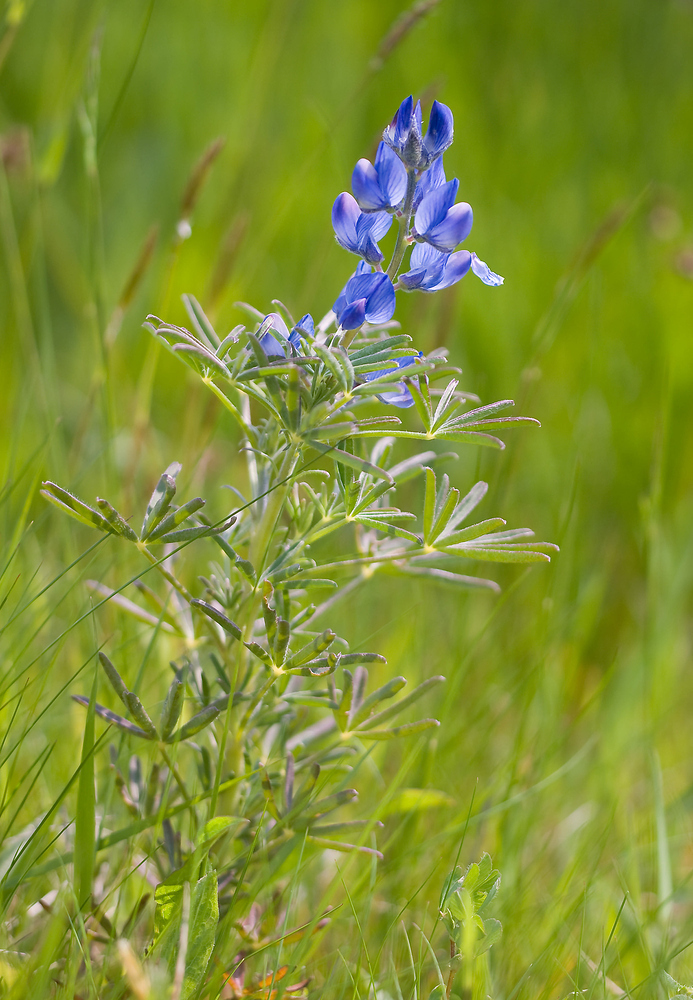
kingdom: Plantae
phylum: Tracheophyta
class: Magnoliopsida
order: Fabales
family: Fabaceae
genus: Lupinus
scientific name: Lupinus angustifolius
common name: Narrow-leaved lupin
